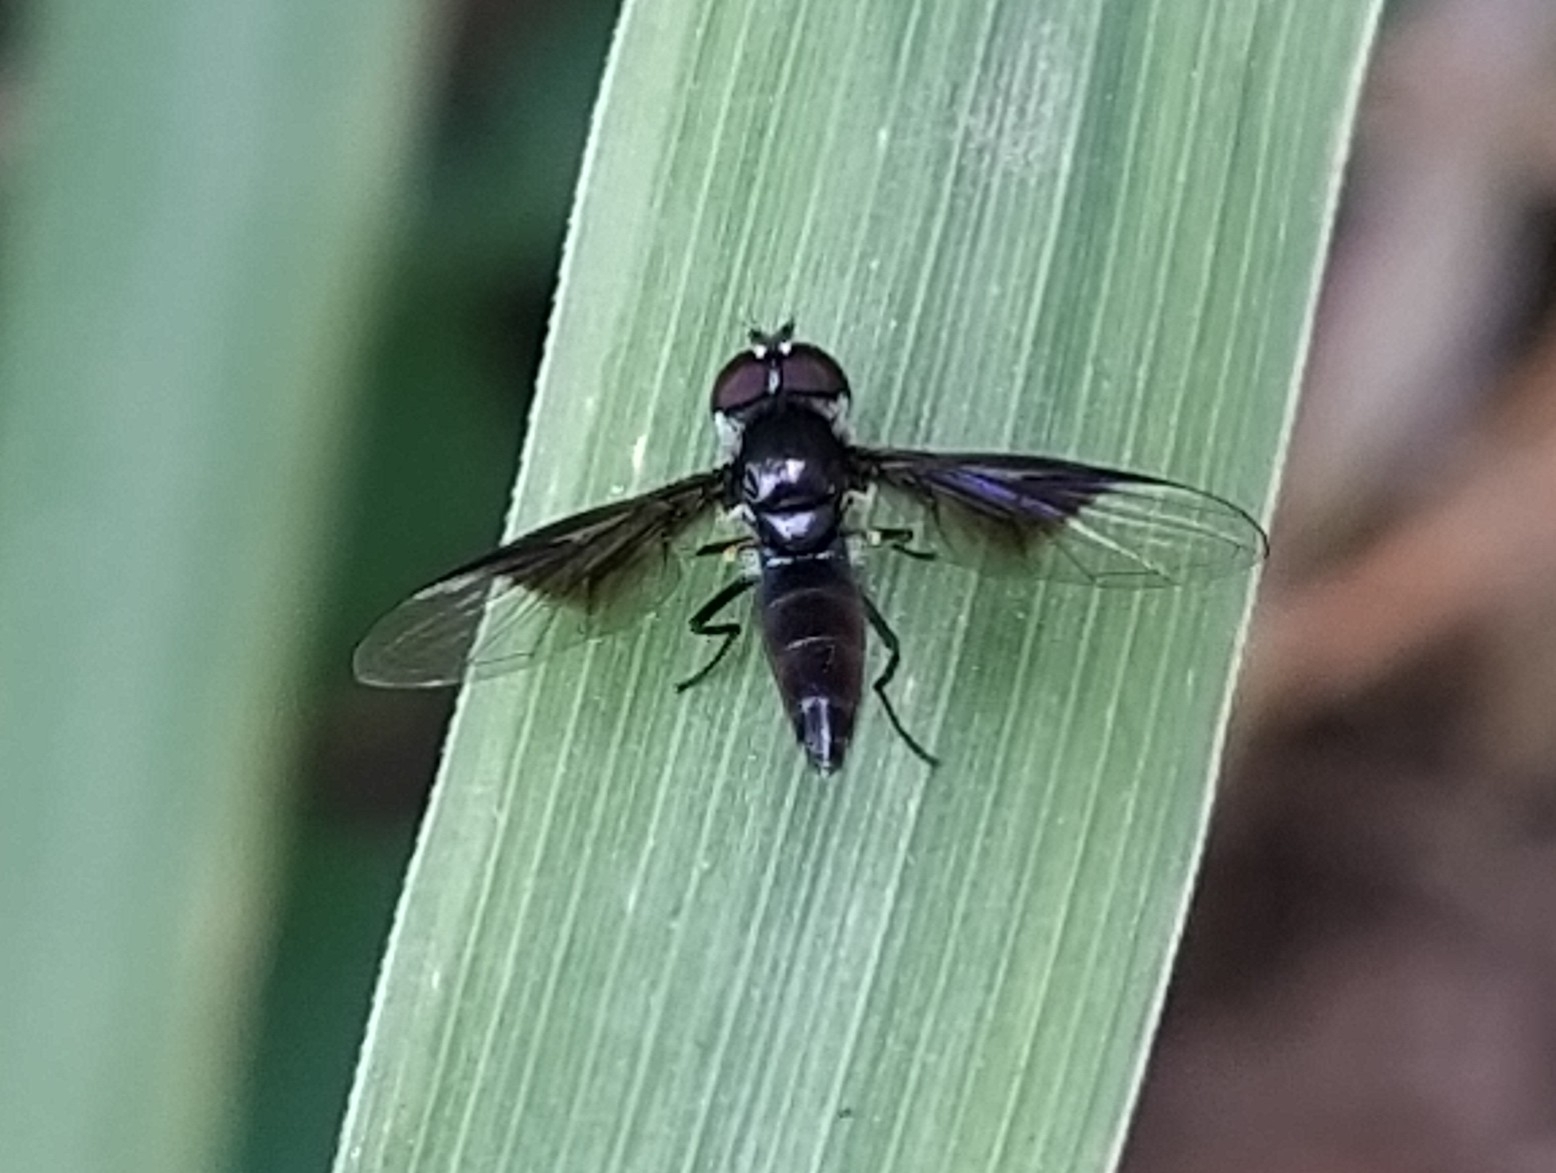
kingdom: Animalia
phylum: Arthropoda
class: Insecta
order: Diptera
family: Syrphidae
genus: Ocyptamus
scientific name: Ocyptamus dimidiatus
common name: Syrphid fly
